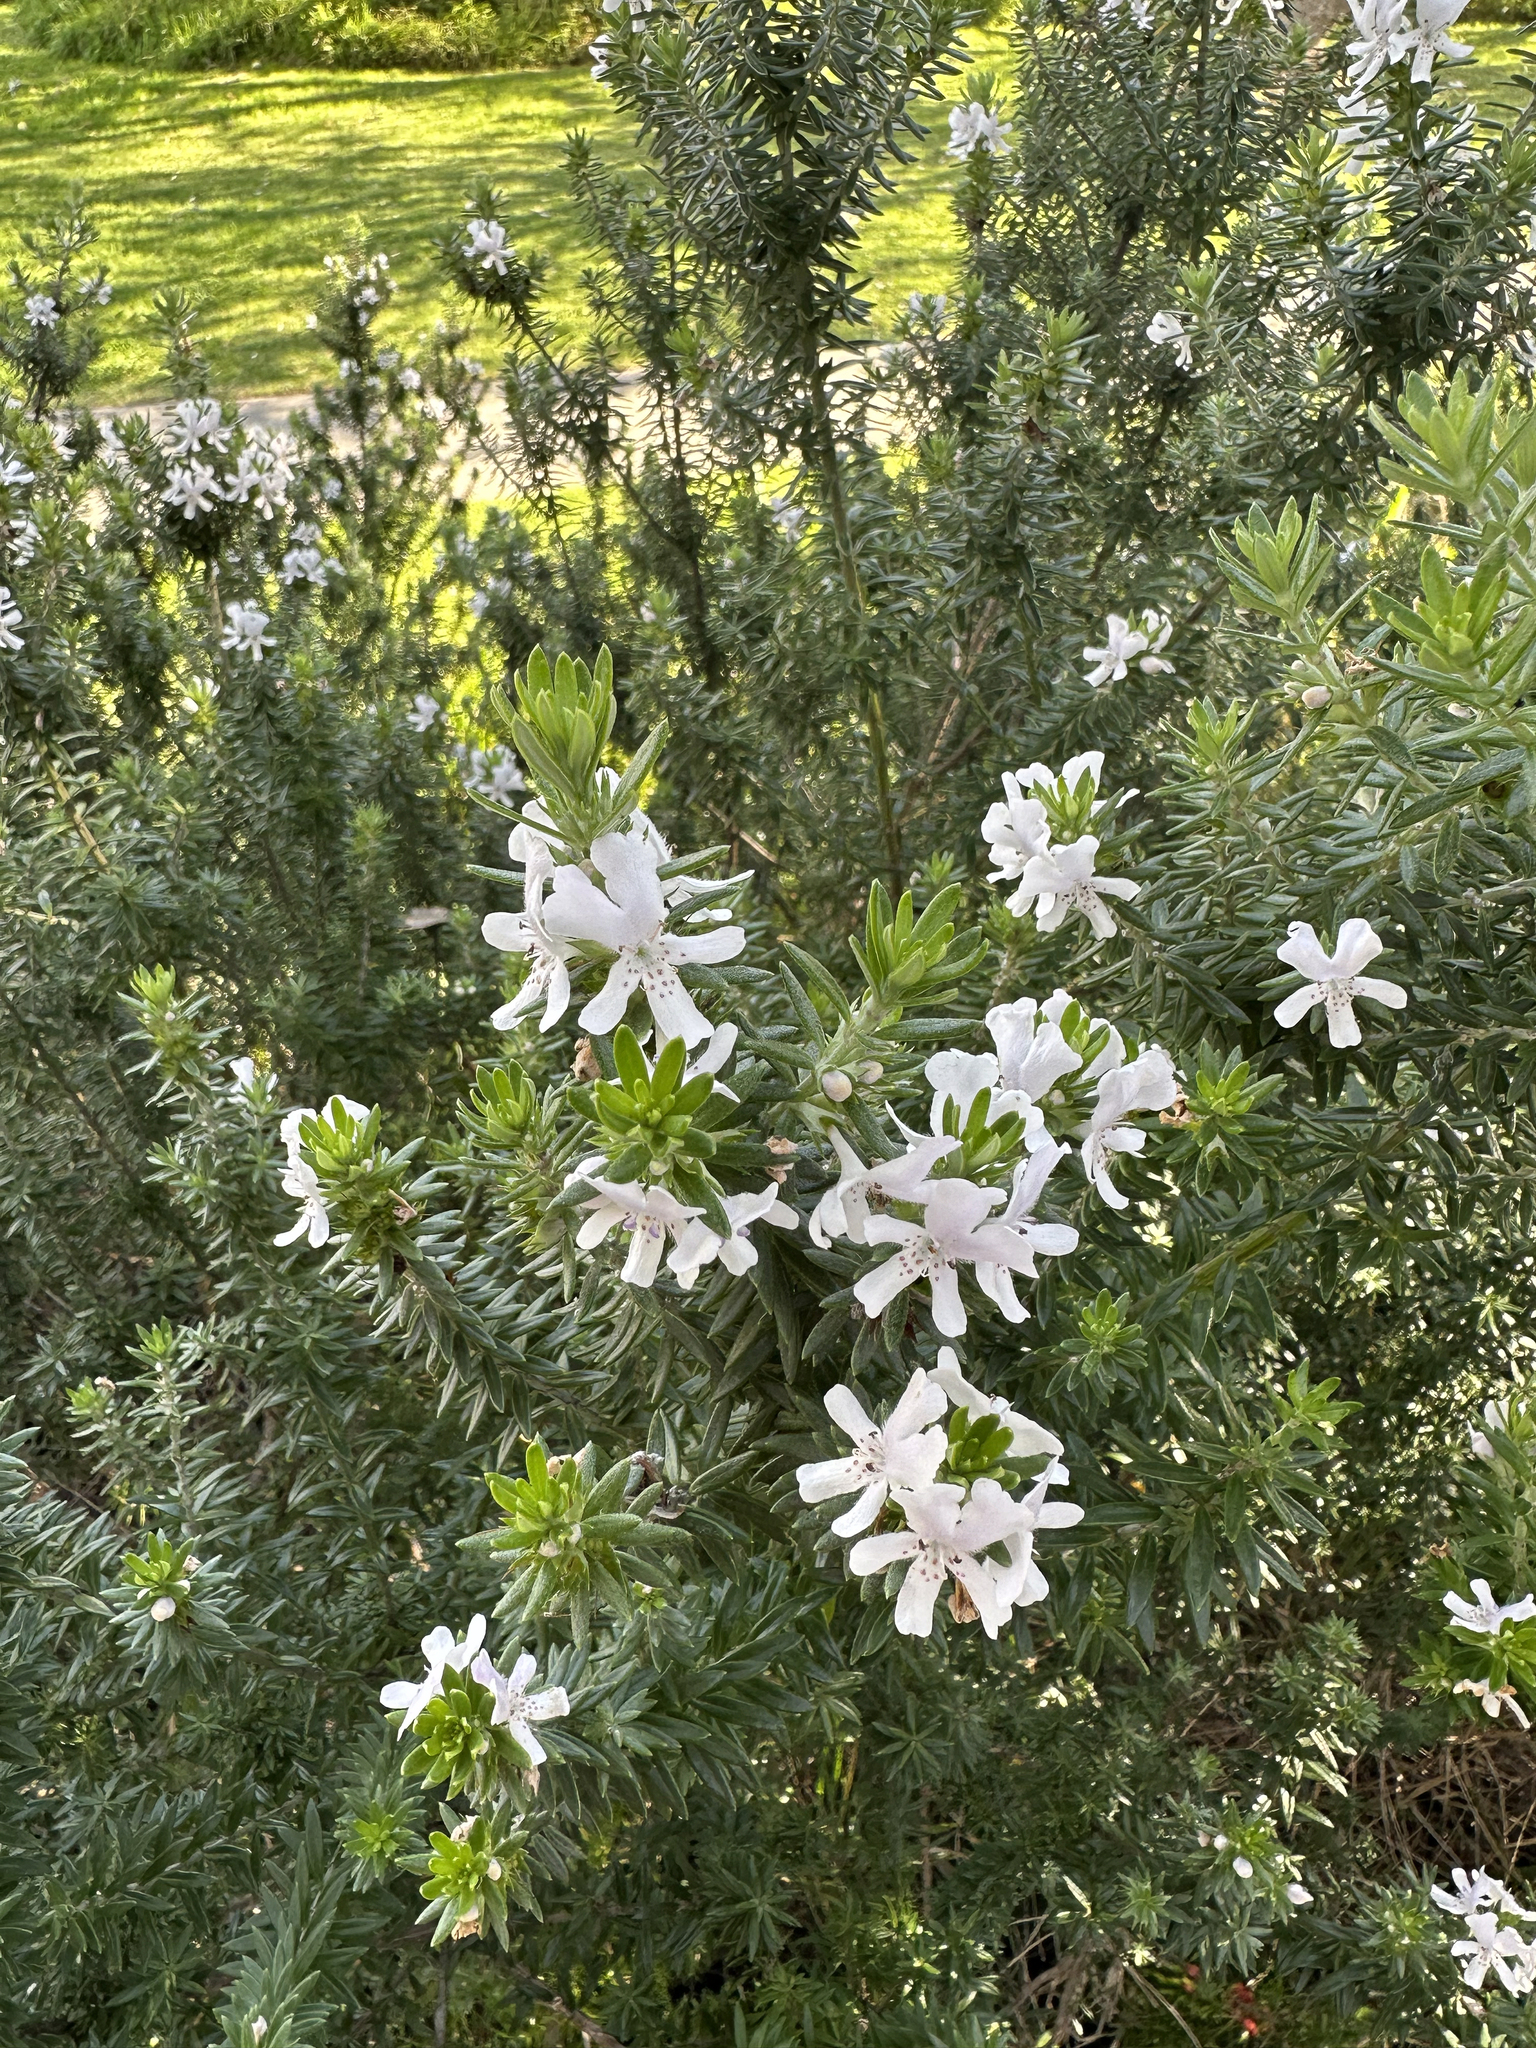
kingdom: Plantae
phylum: Tracheophyta
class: Magnoliopsida
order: Lamiales
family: Lamiaceae
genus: Westringia
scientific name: Westringia fruticosa
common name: Coastal-rosemary
